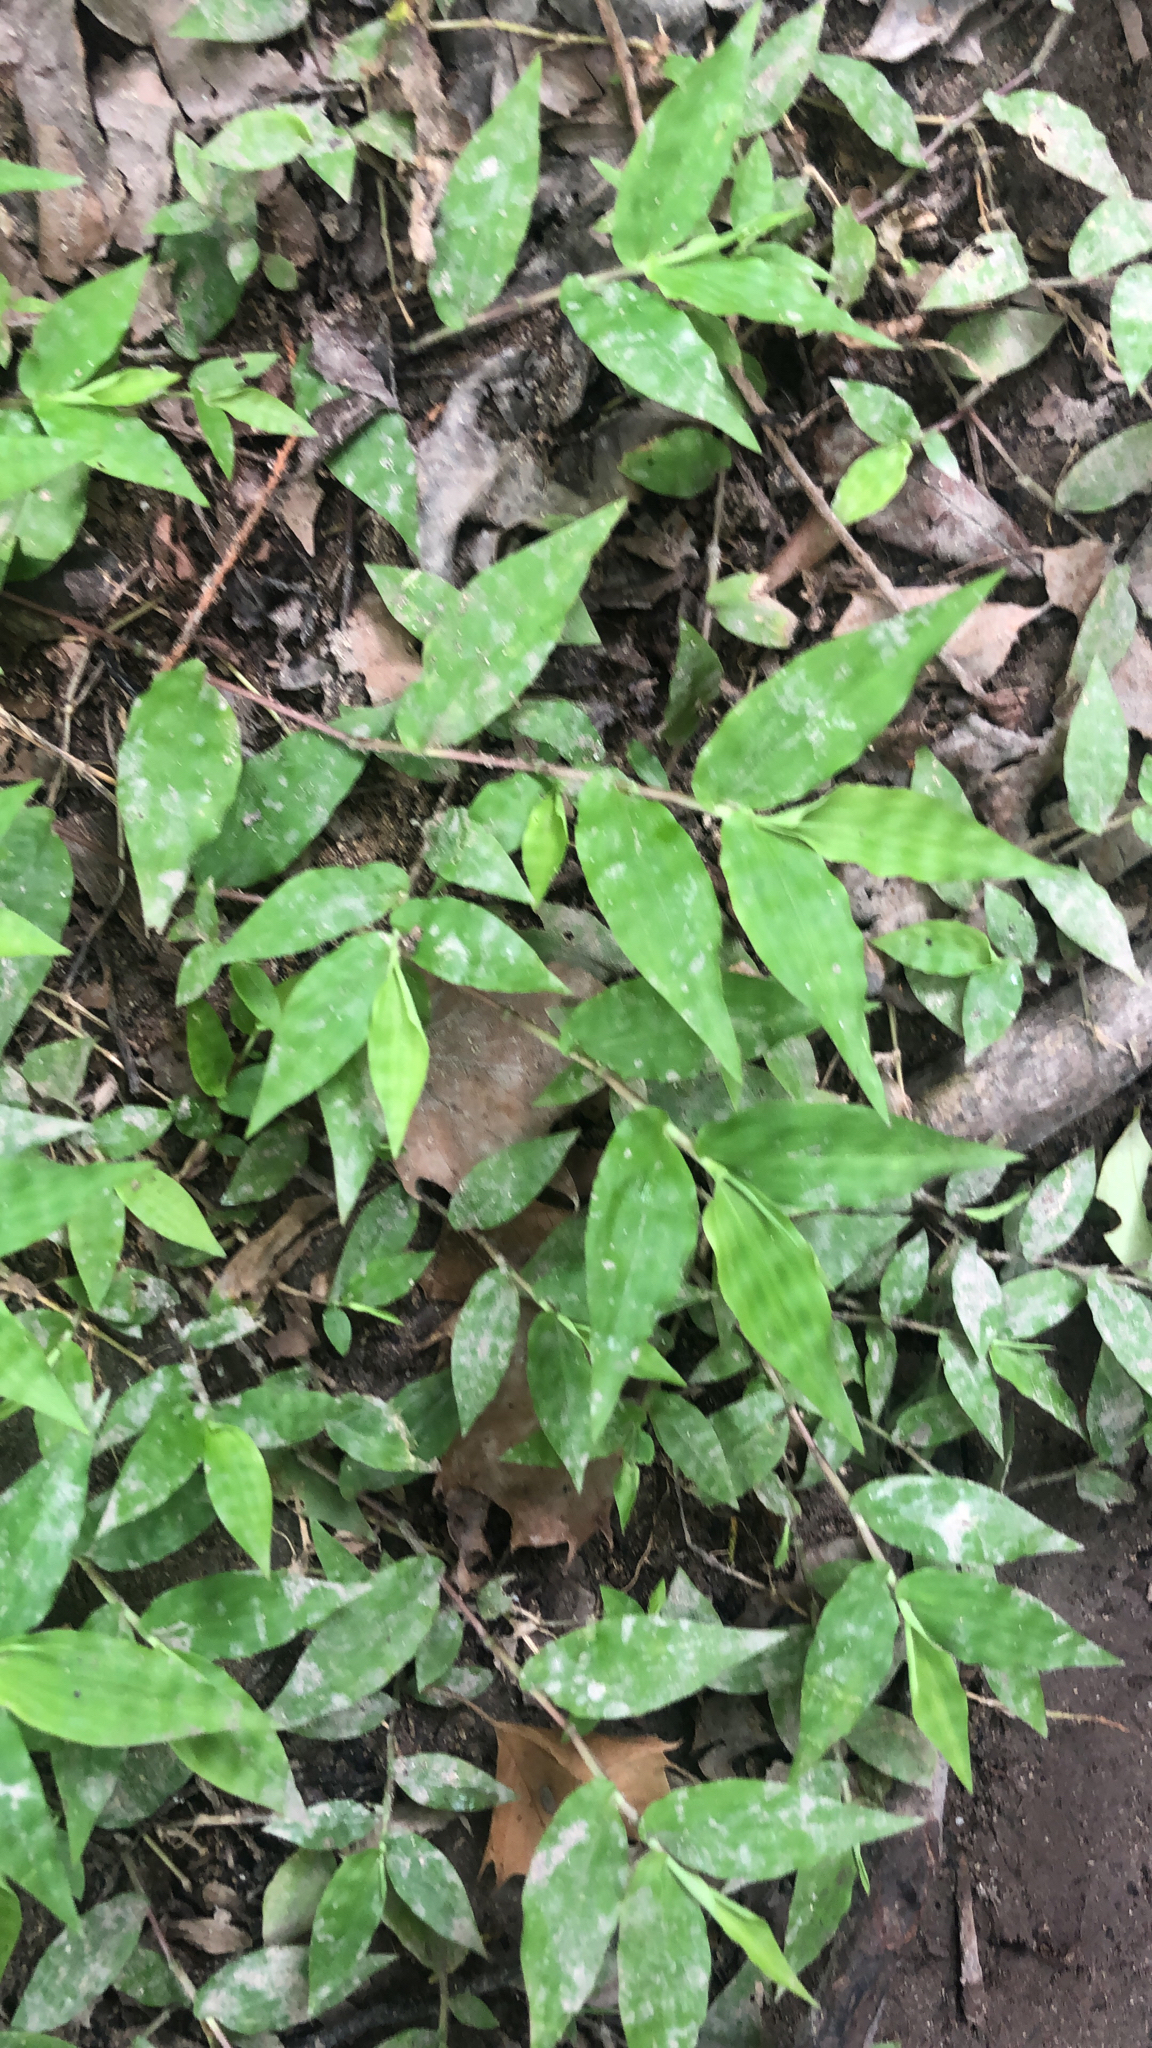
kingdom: Plantae
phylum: Tracheophyta
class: Liliopsida
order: Poales
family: Poaceae
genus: Oplismenus
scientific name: Oplismenus hirtellus
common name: Basketgrass
